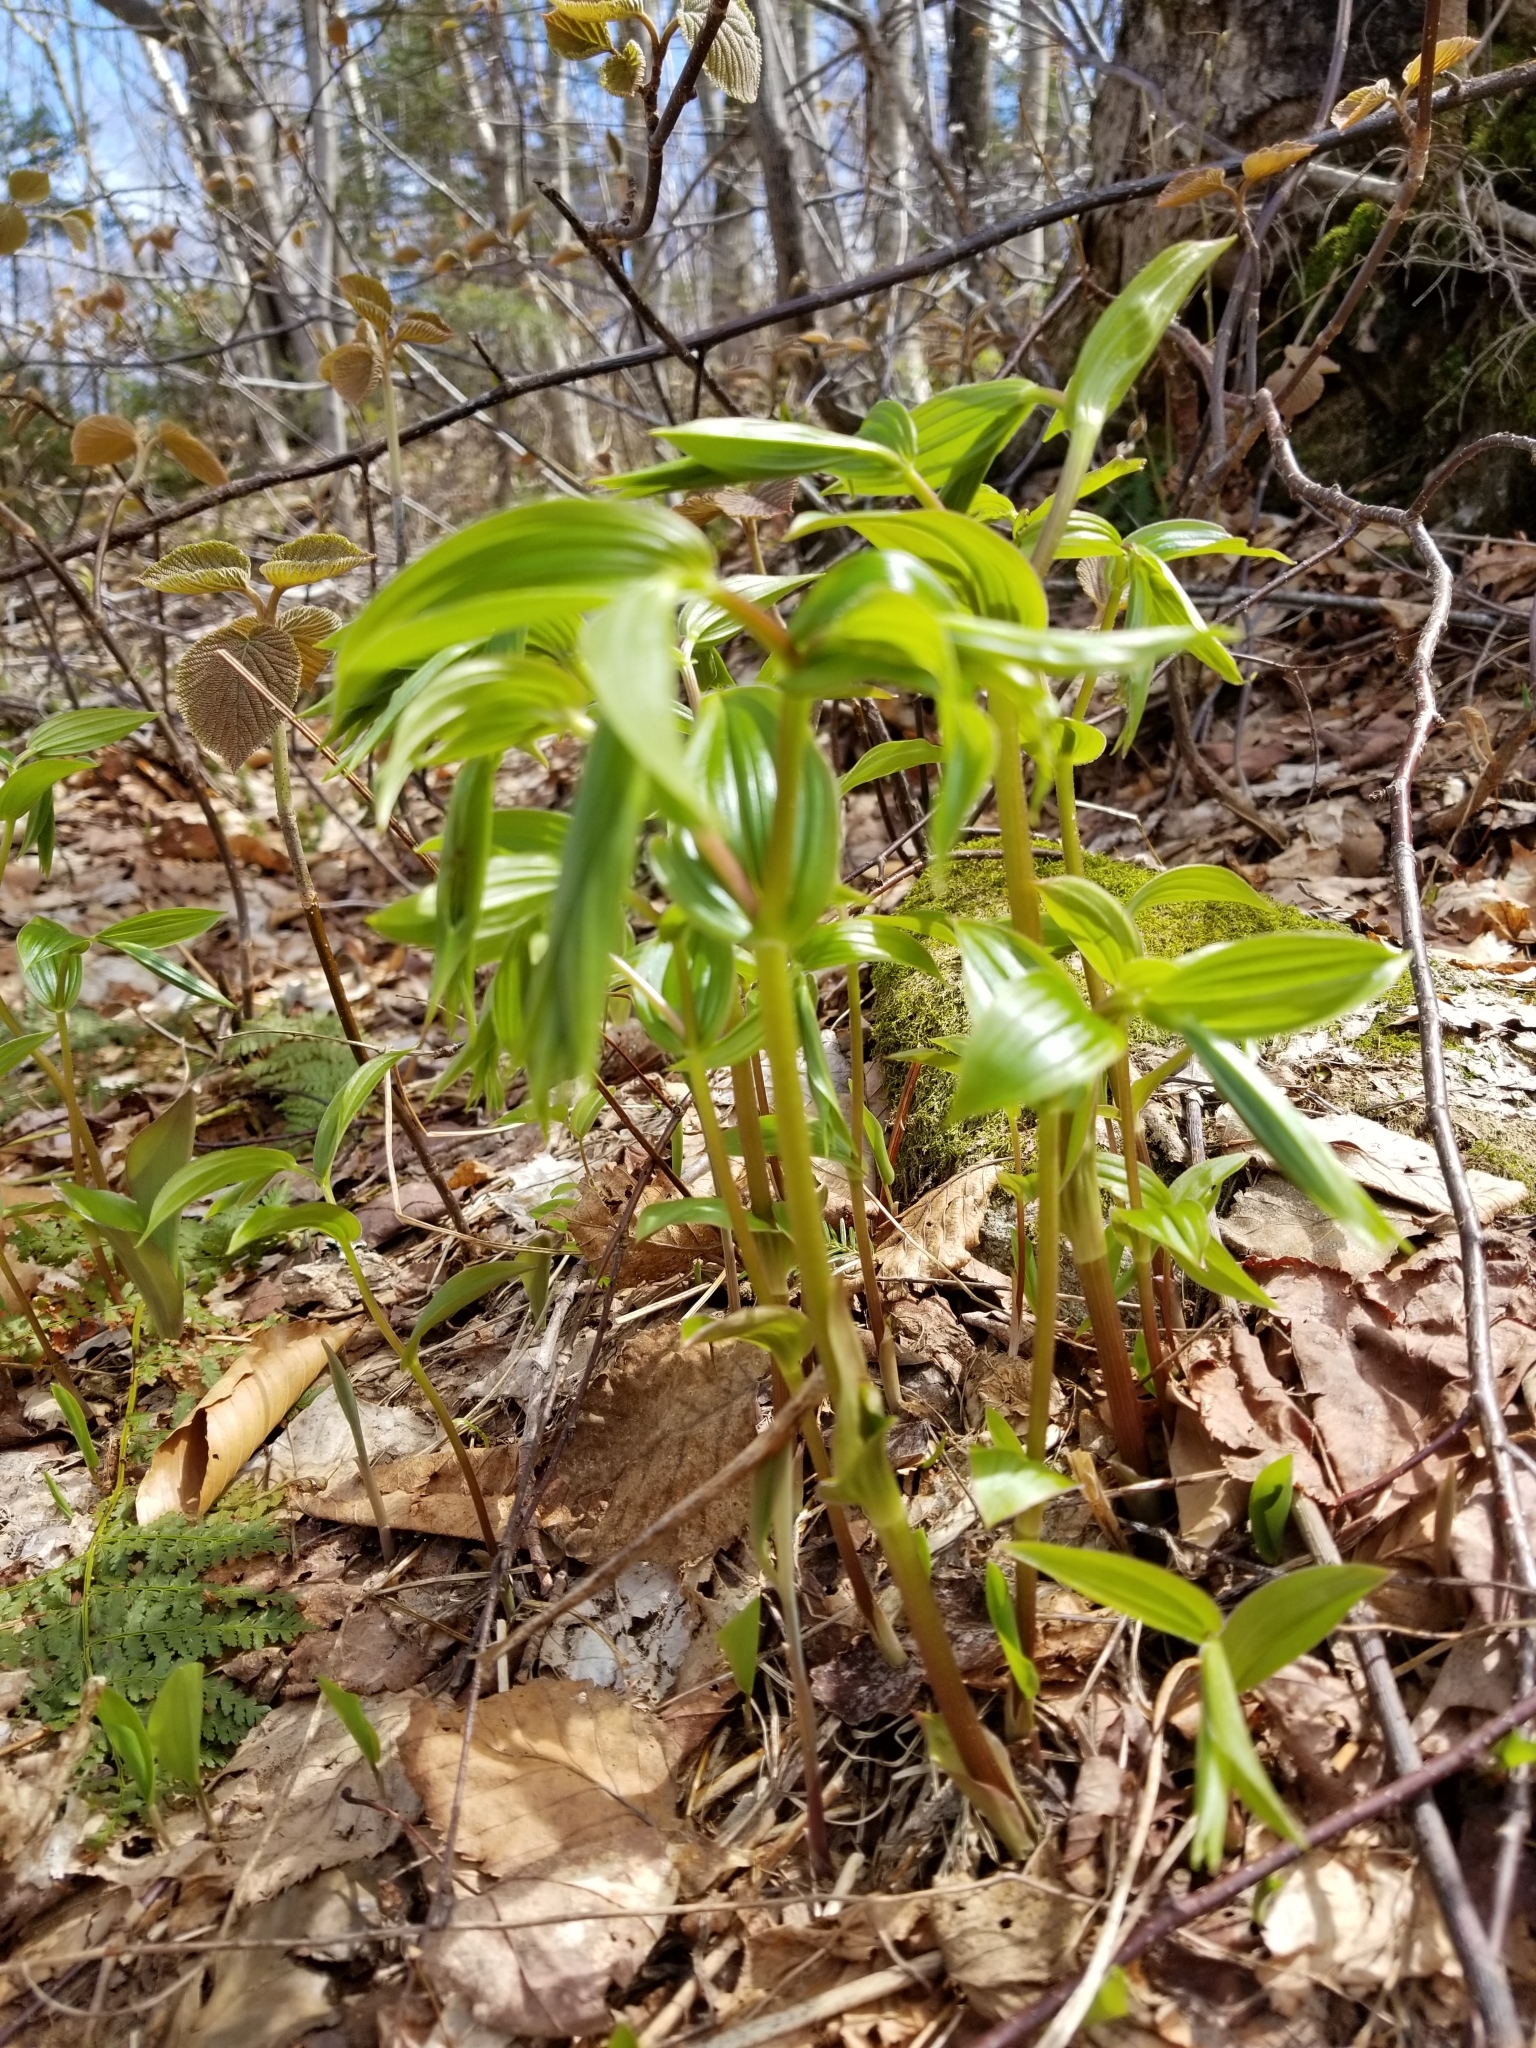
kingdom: Plantae
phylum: Tracheophyta
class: Liliopsida
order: Liliales
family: Liliaceae
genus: Streptopus
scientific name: Streptopus lanceolatus
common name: Rose mandarin
